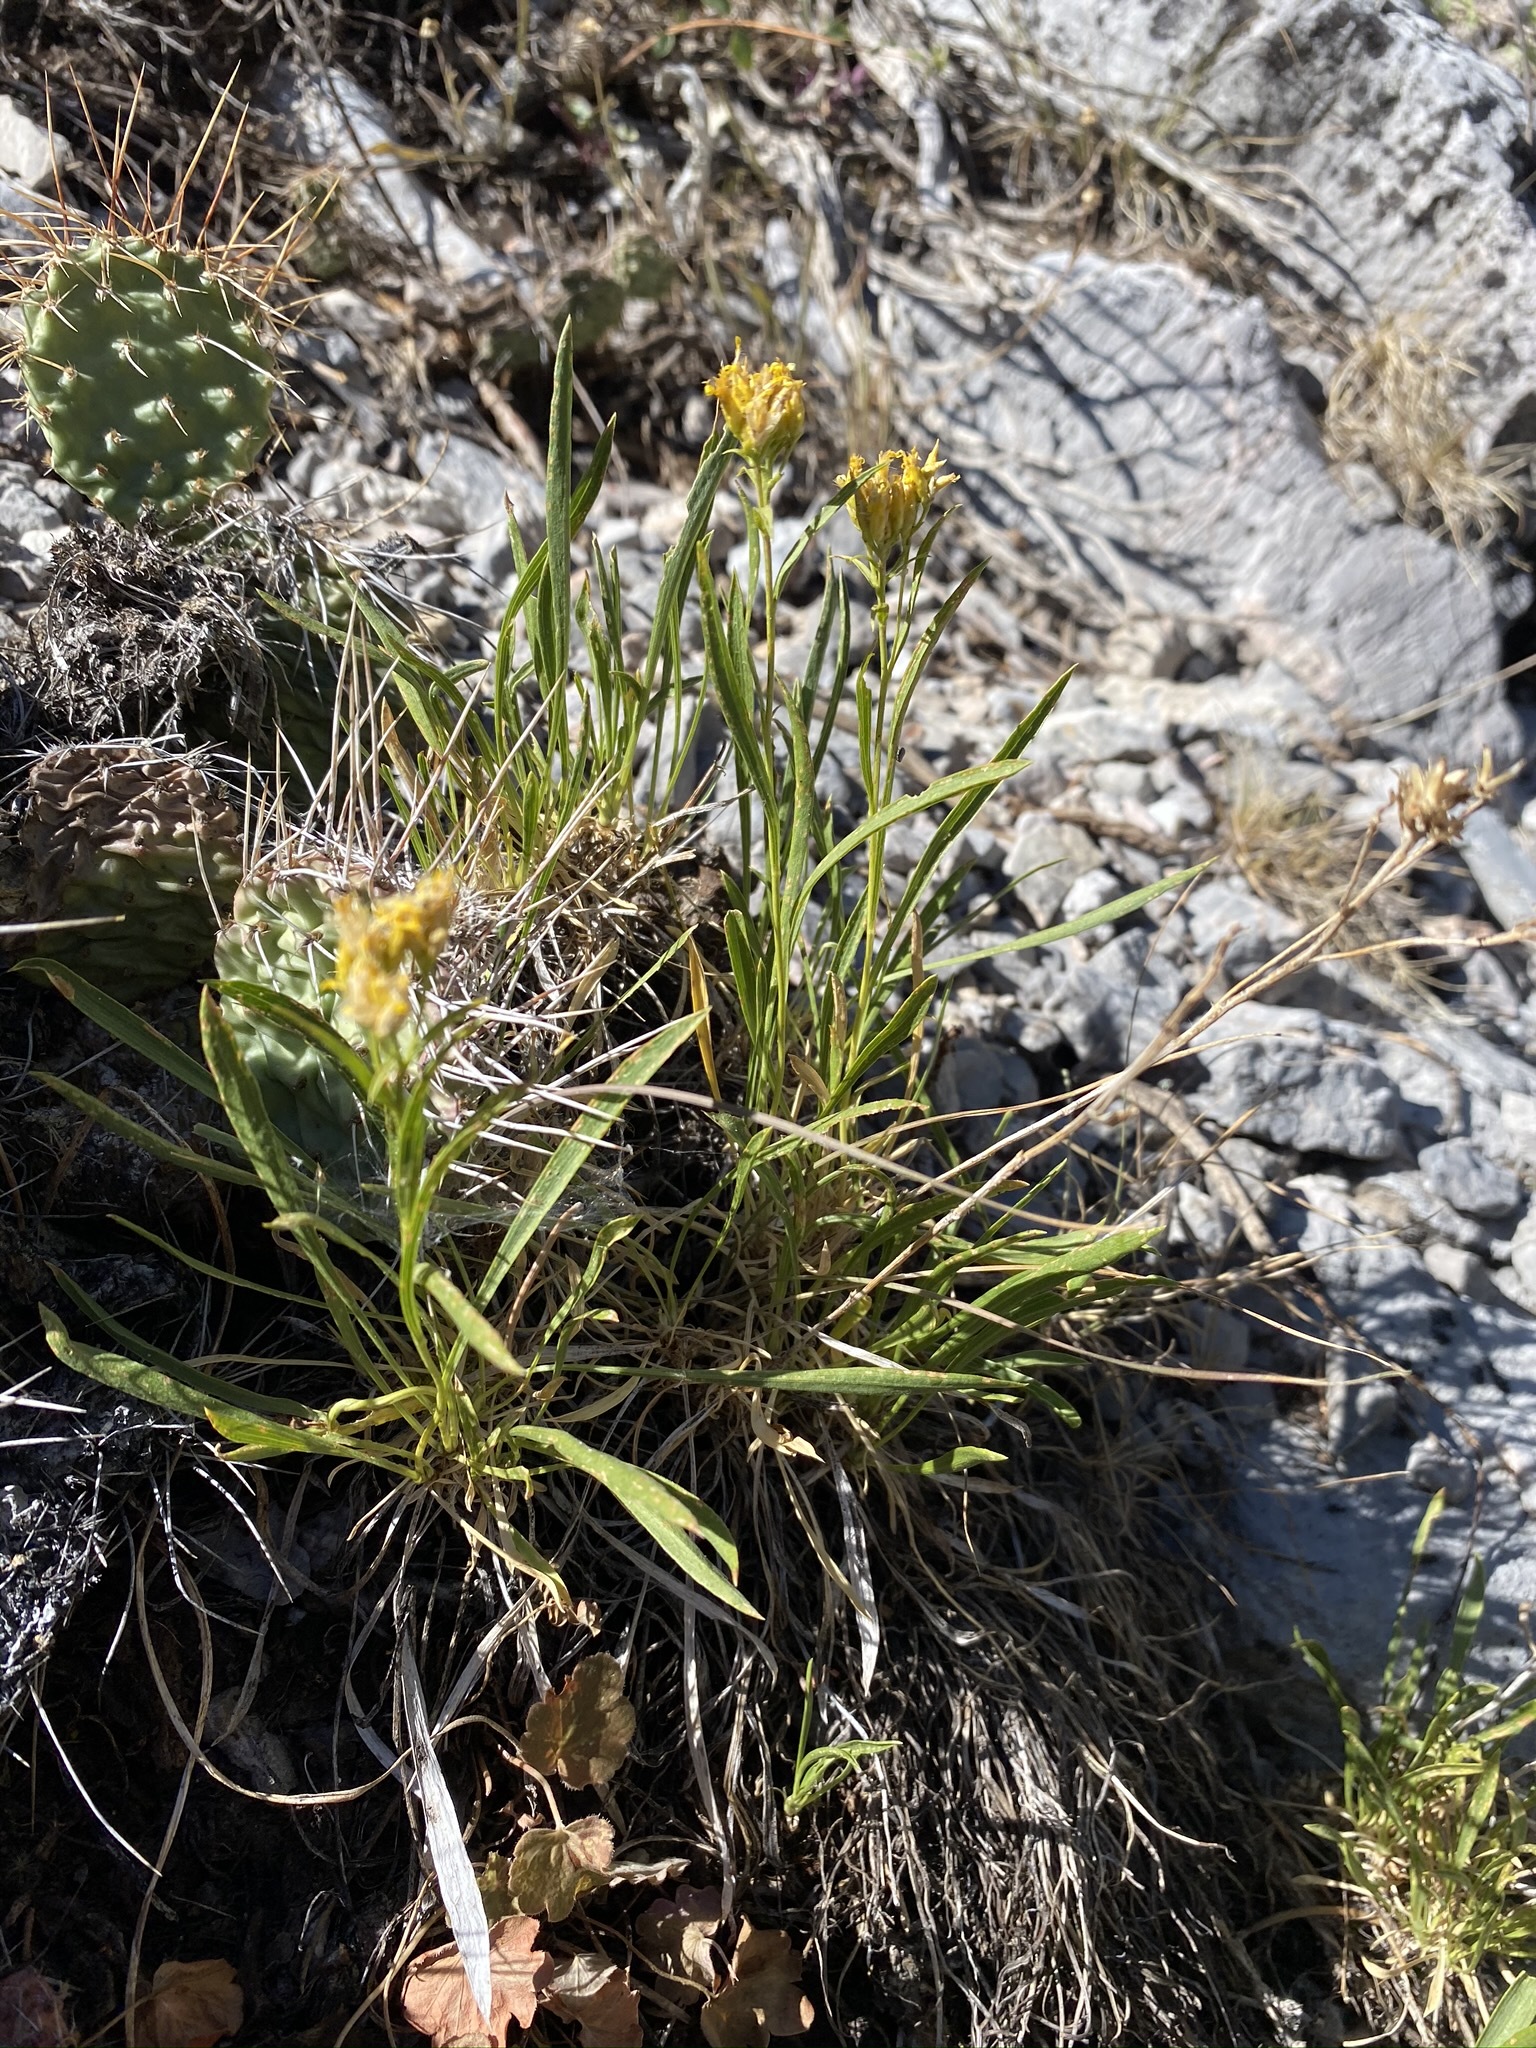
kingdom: Plantae
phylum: Tracheophyta
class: Magnoliopsida
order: Asterales
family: Asteraceae
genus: Petradoria
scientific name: Petradoria pumila
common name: Rock-goldenrod
